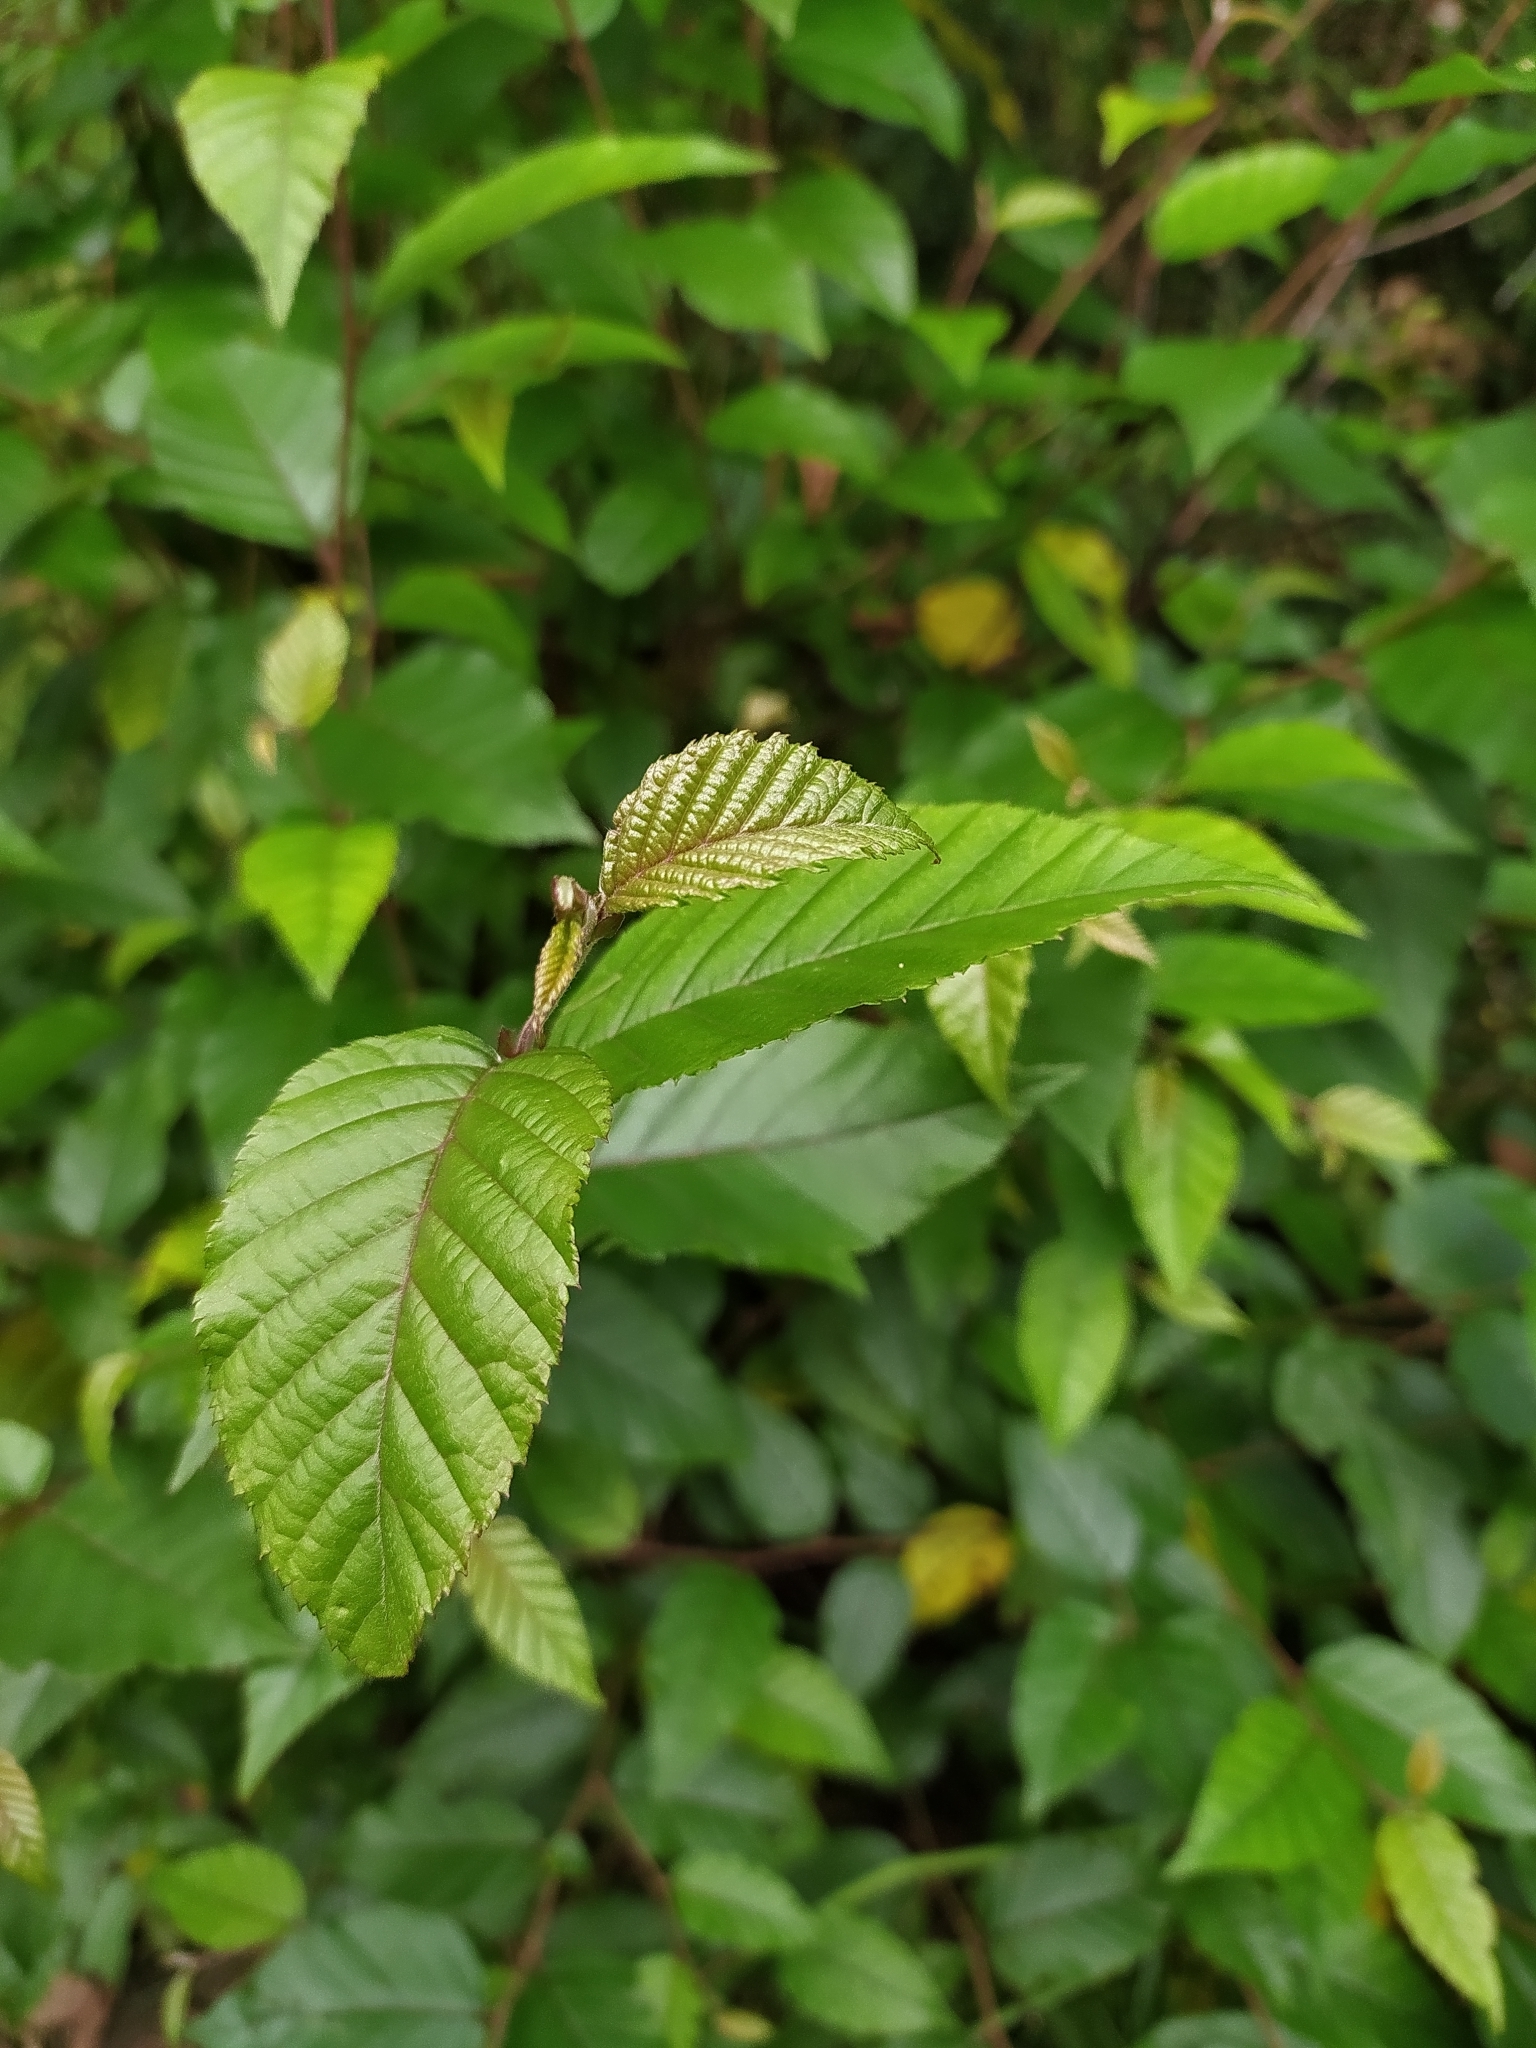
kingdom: Plantae
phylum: Tracheophyta
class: Magnoliopsida
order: Fagales
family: Betulaceae
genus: Betula
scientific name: Betula alnoides
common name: Indian birch
